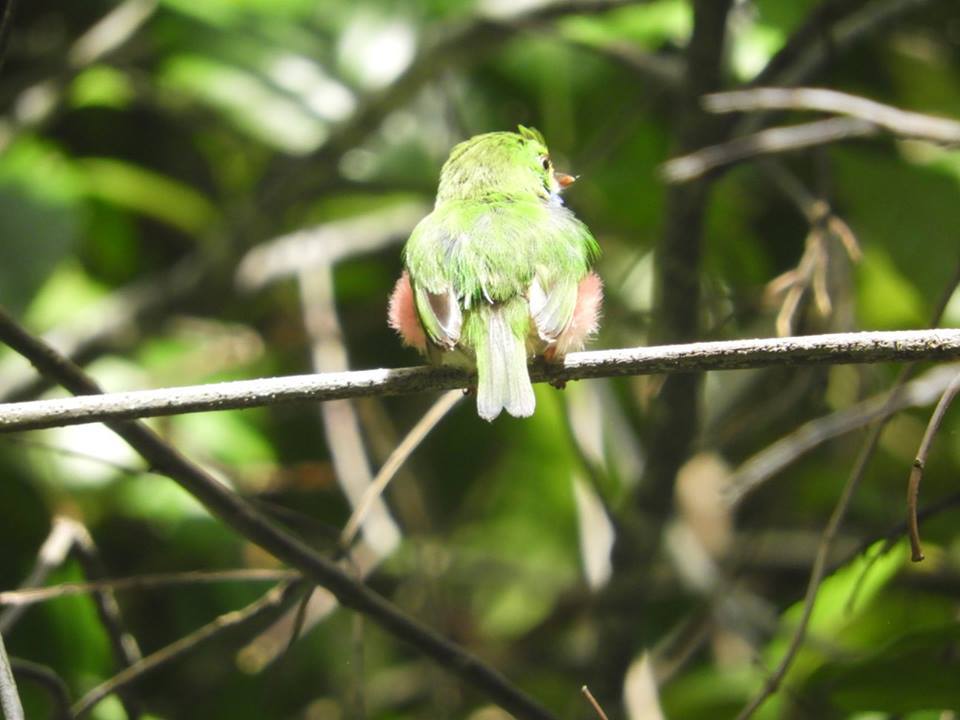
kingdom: Animalia
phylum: Chordata
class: Aves
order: Coraciiformes
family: Todidae
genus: Todus
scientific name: Todus multicolor
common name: Cuban tody
